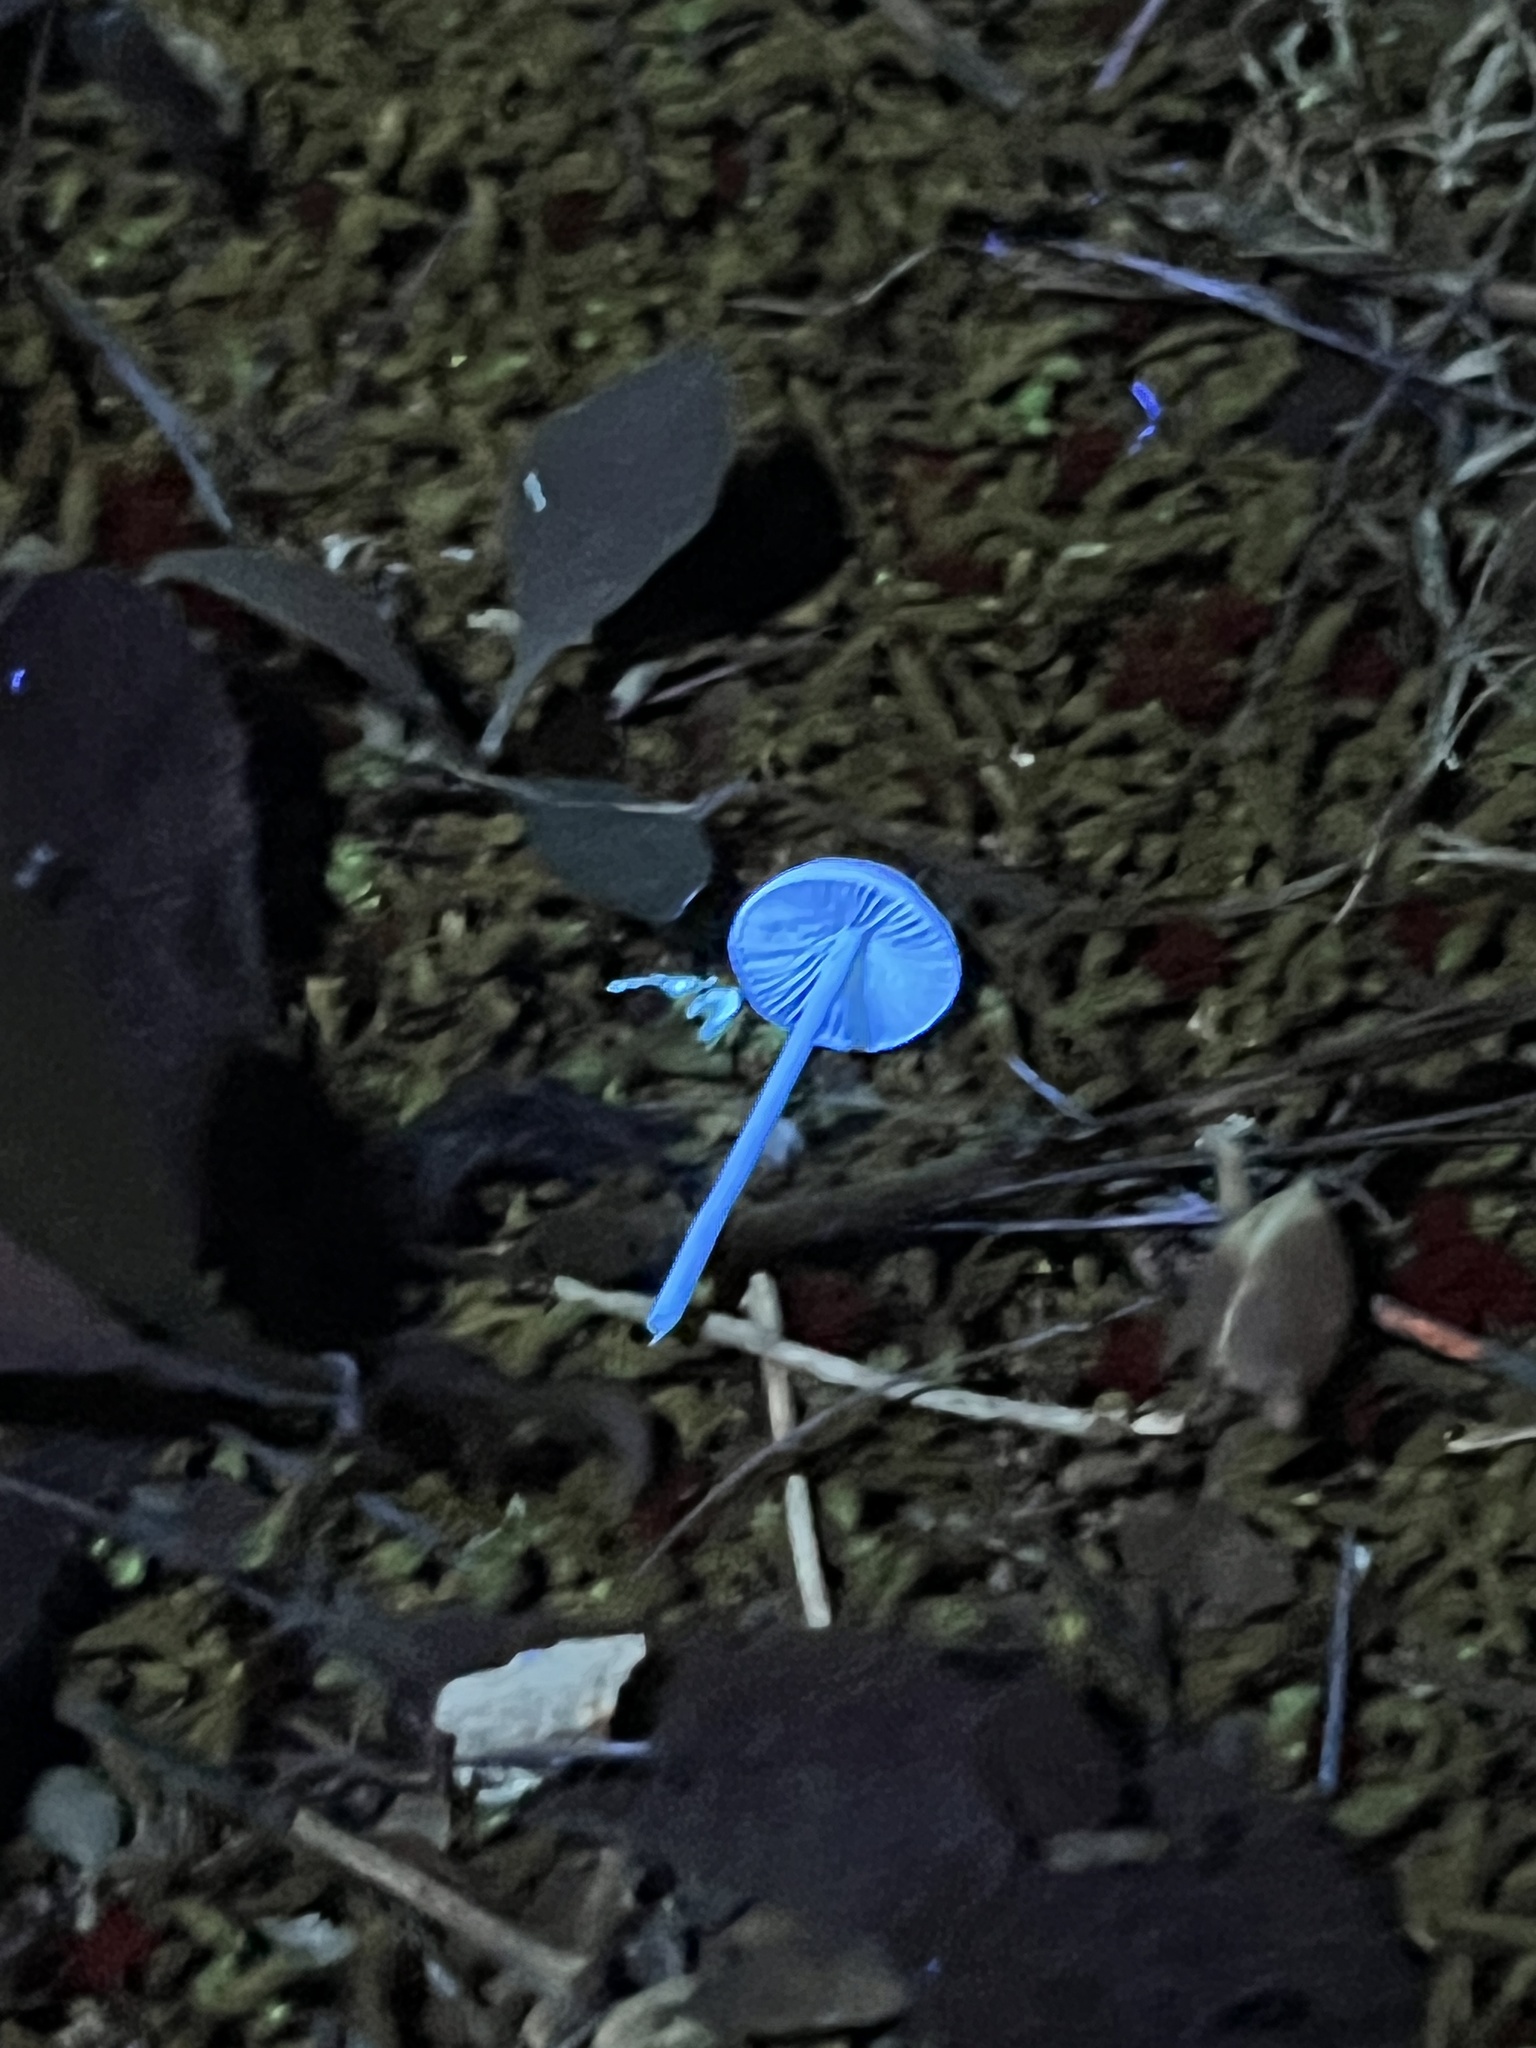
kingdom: Fungi
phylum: Basidiomycota
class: Agaricomycetes
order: Agaricales
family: Entolomataceae
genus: Entoloma
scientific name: Entoloma olivaceomarginatum
